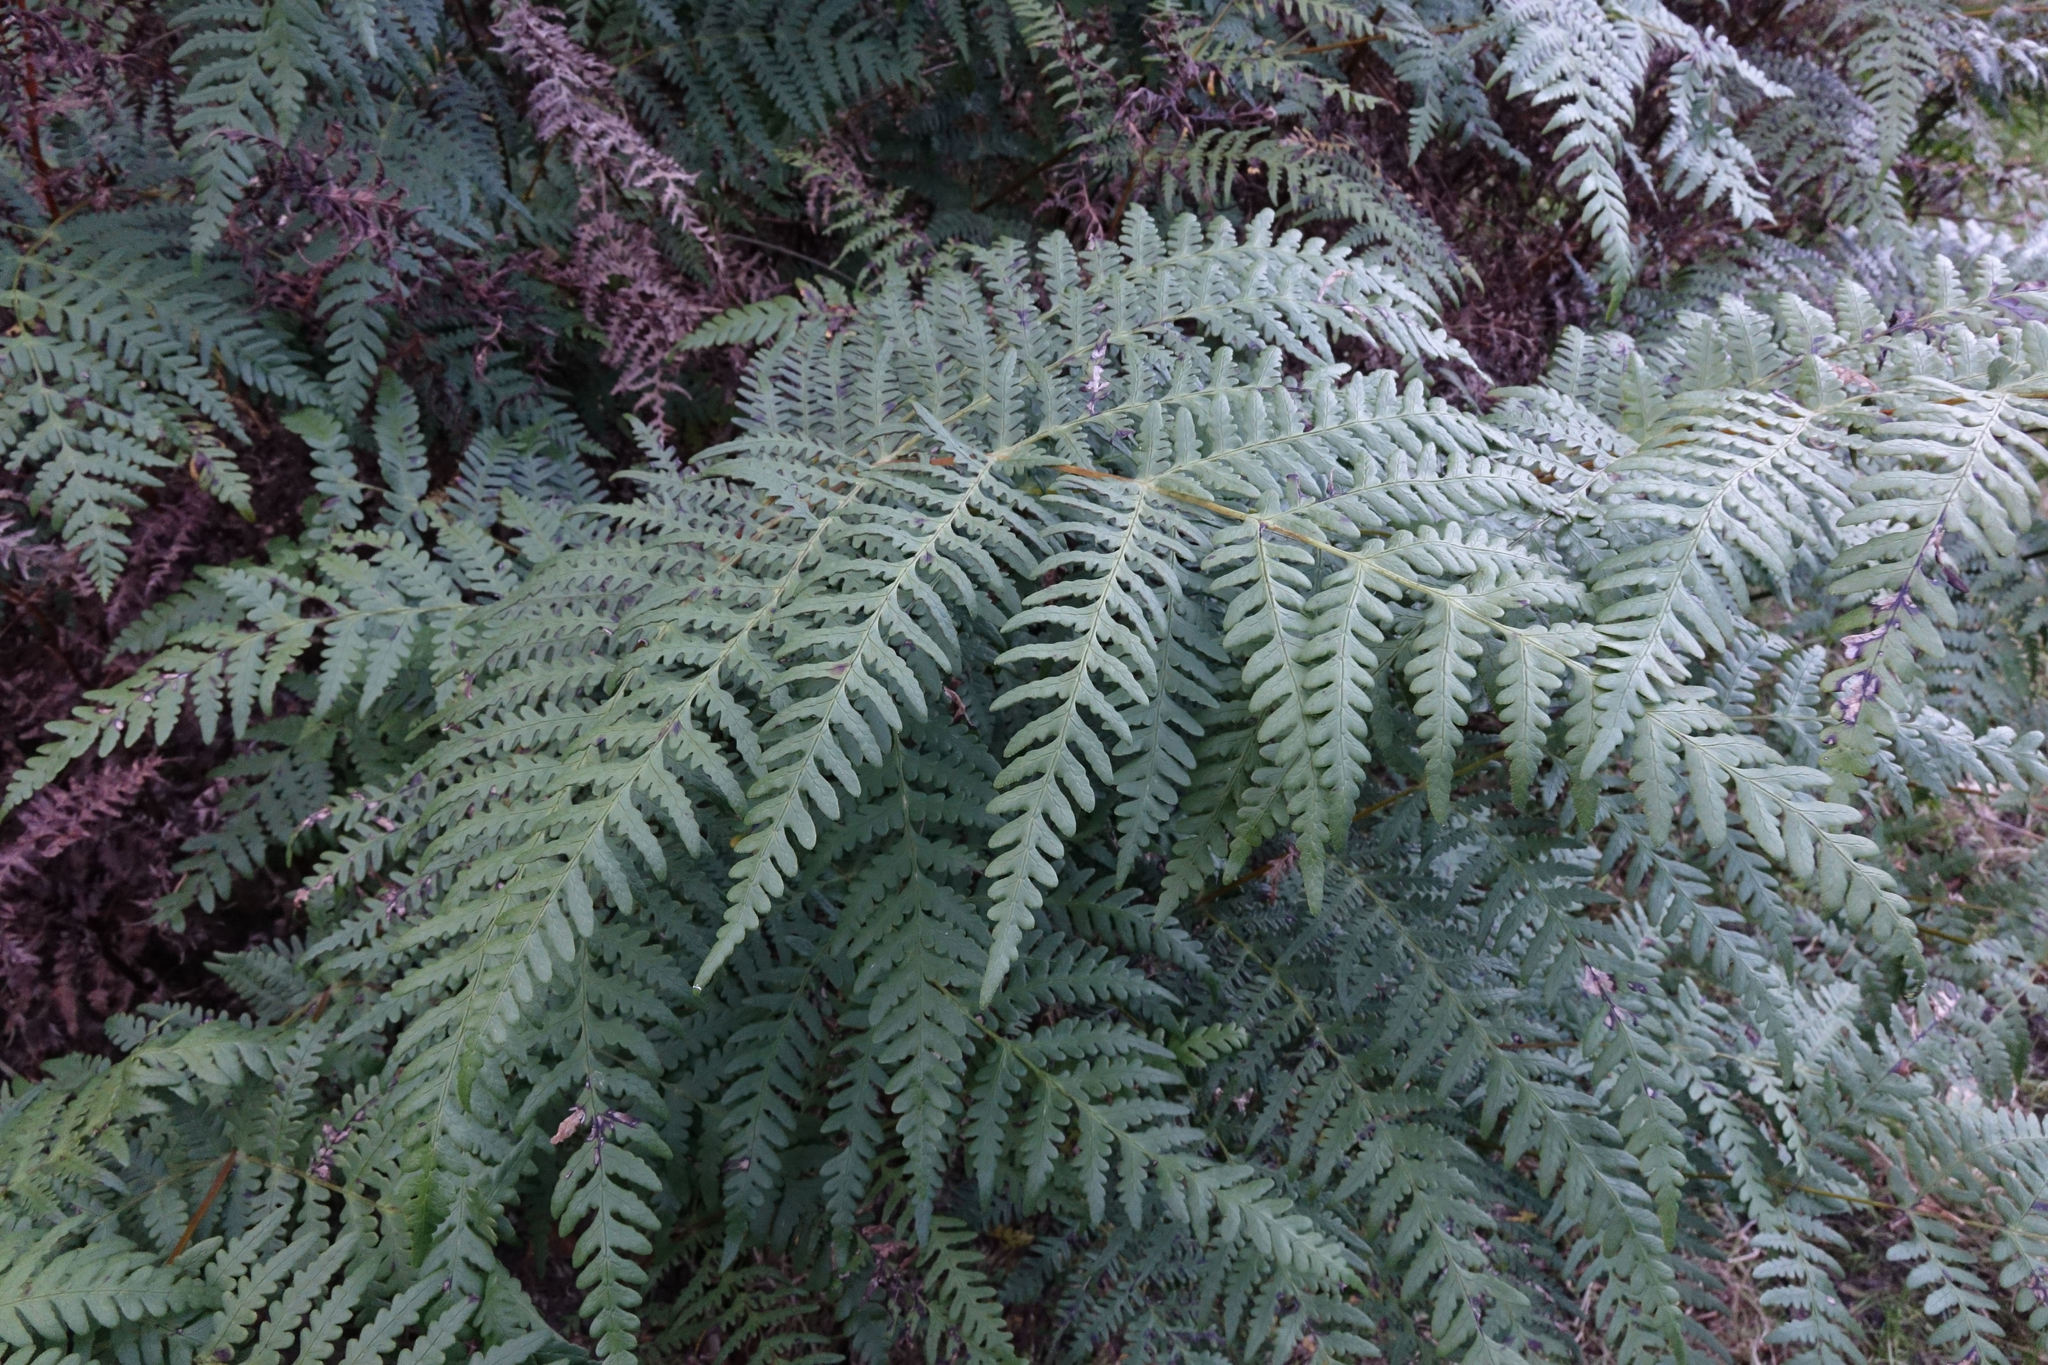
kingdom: Plantae
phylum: Tracheophyta
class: Polypodiopsida
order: Polypodiales
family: Dennstaedtiaceae
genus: Histiopteris
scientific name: Histiopteris incisa
